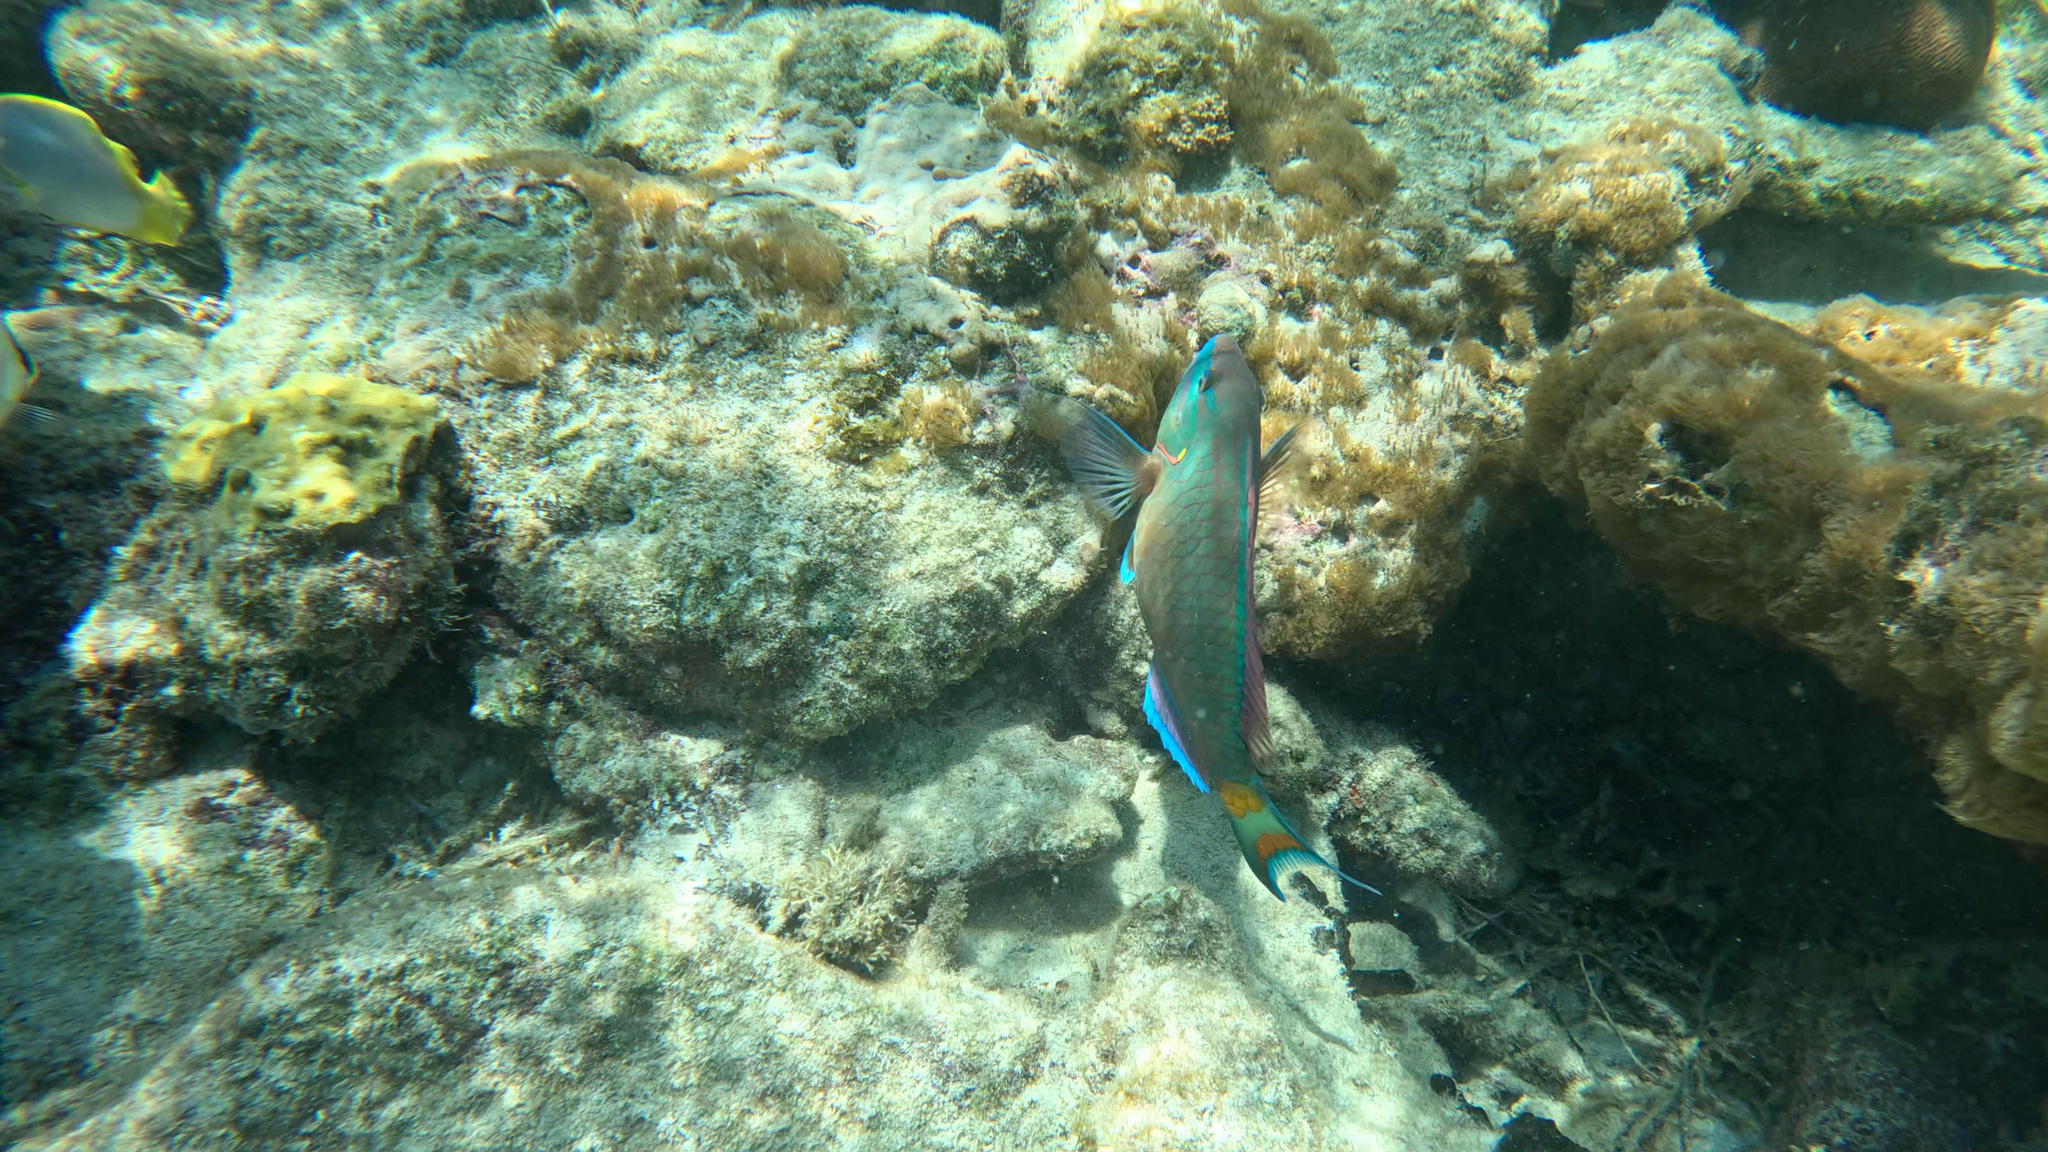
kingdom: Animalia
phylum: Chordata
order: Perciformes
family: Scaridae
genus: Sparisoma
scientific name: Sparisoma viride
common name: Stoplight parrotfish
